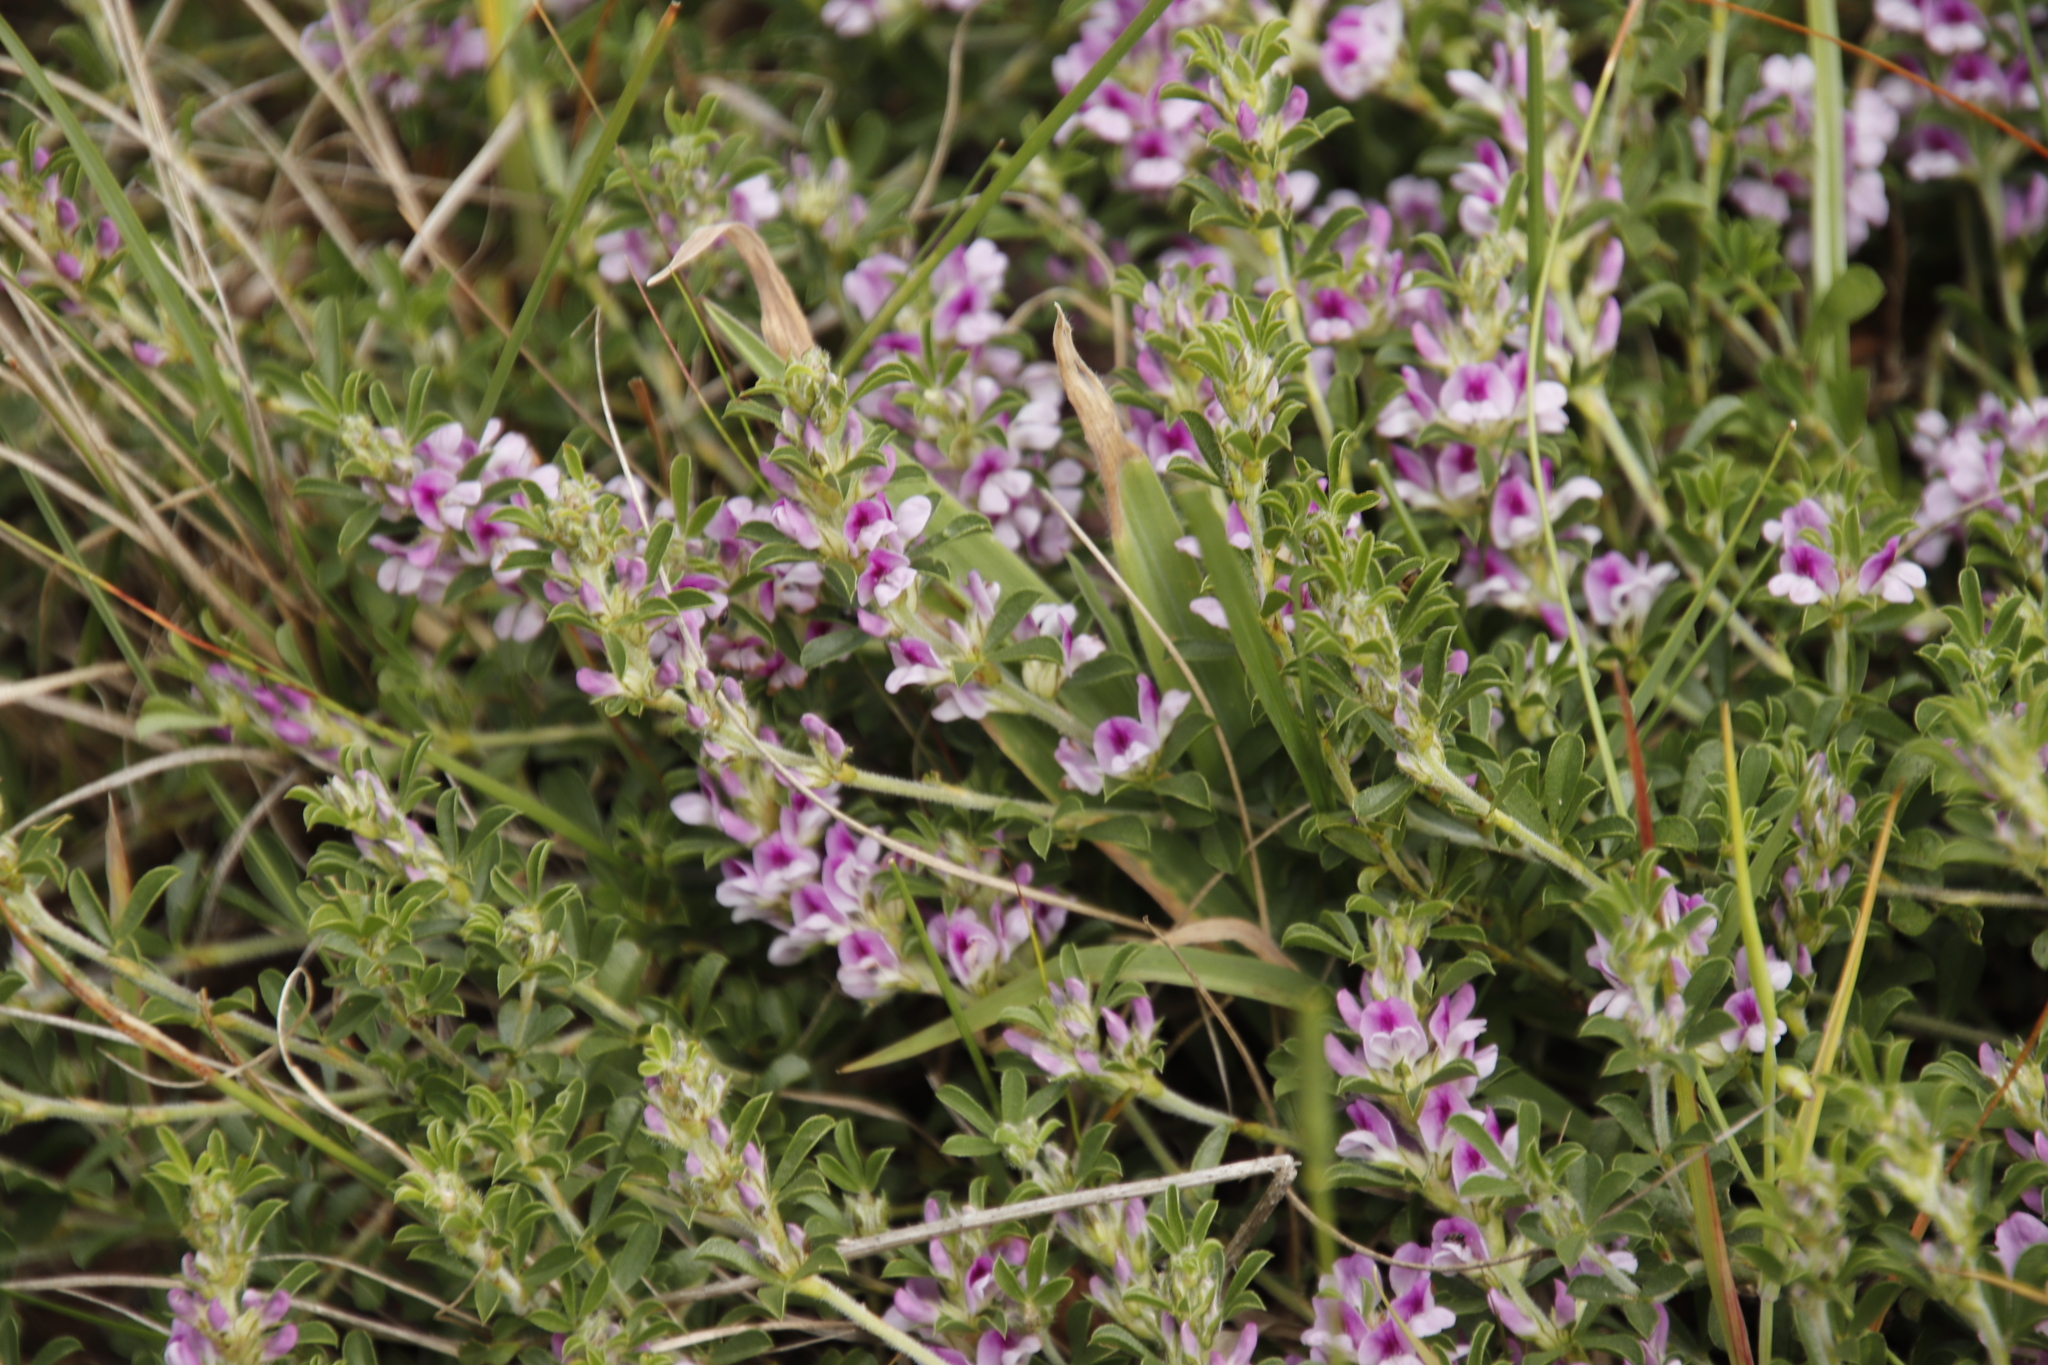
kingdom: Plantae
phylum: Tracheophyta
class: Magnoliopsida
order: Fabales
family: Fabaceae
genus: Psoralea
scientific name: Psoralea
